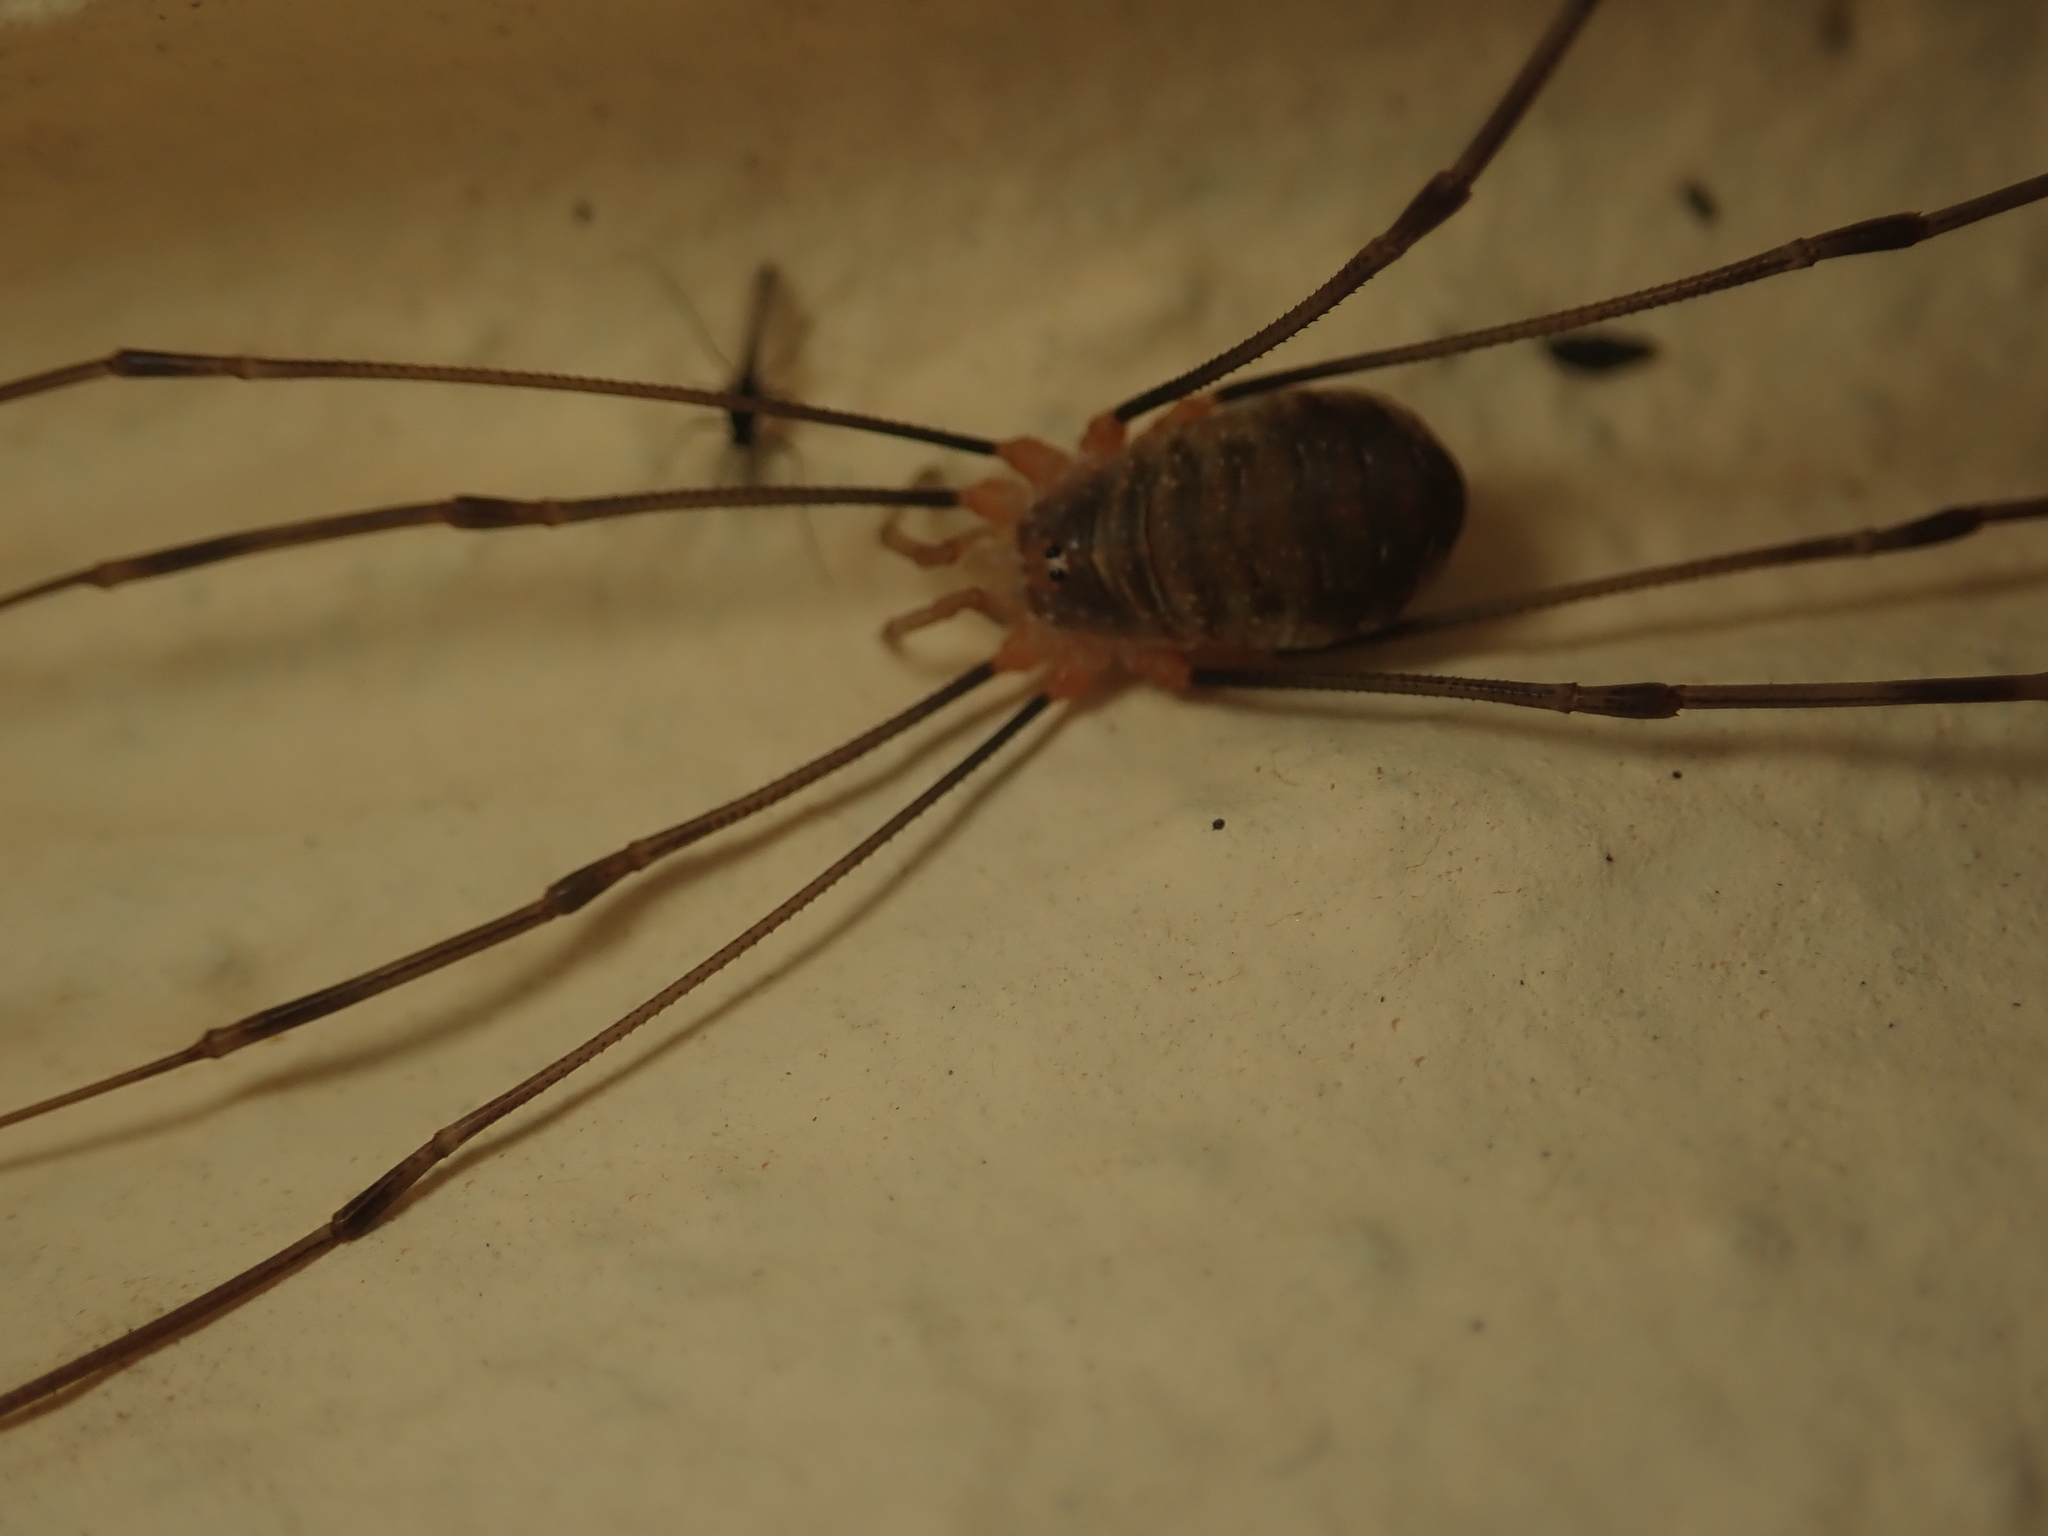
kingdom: Animalia
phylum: Arthropoda
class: Arachnida
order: Opiliones
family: Phalangiidae
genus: Opilio
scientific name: Opilio canestrinii
